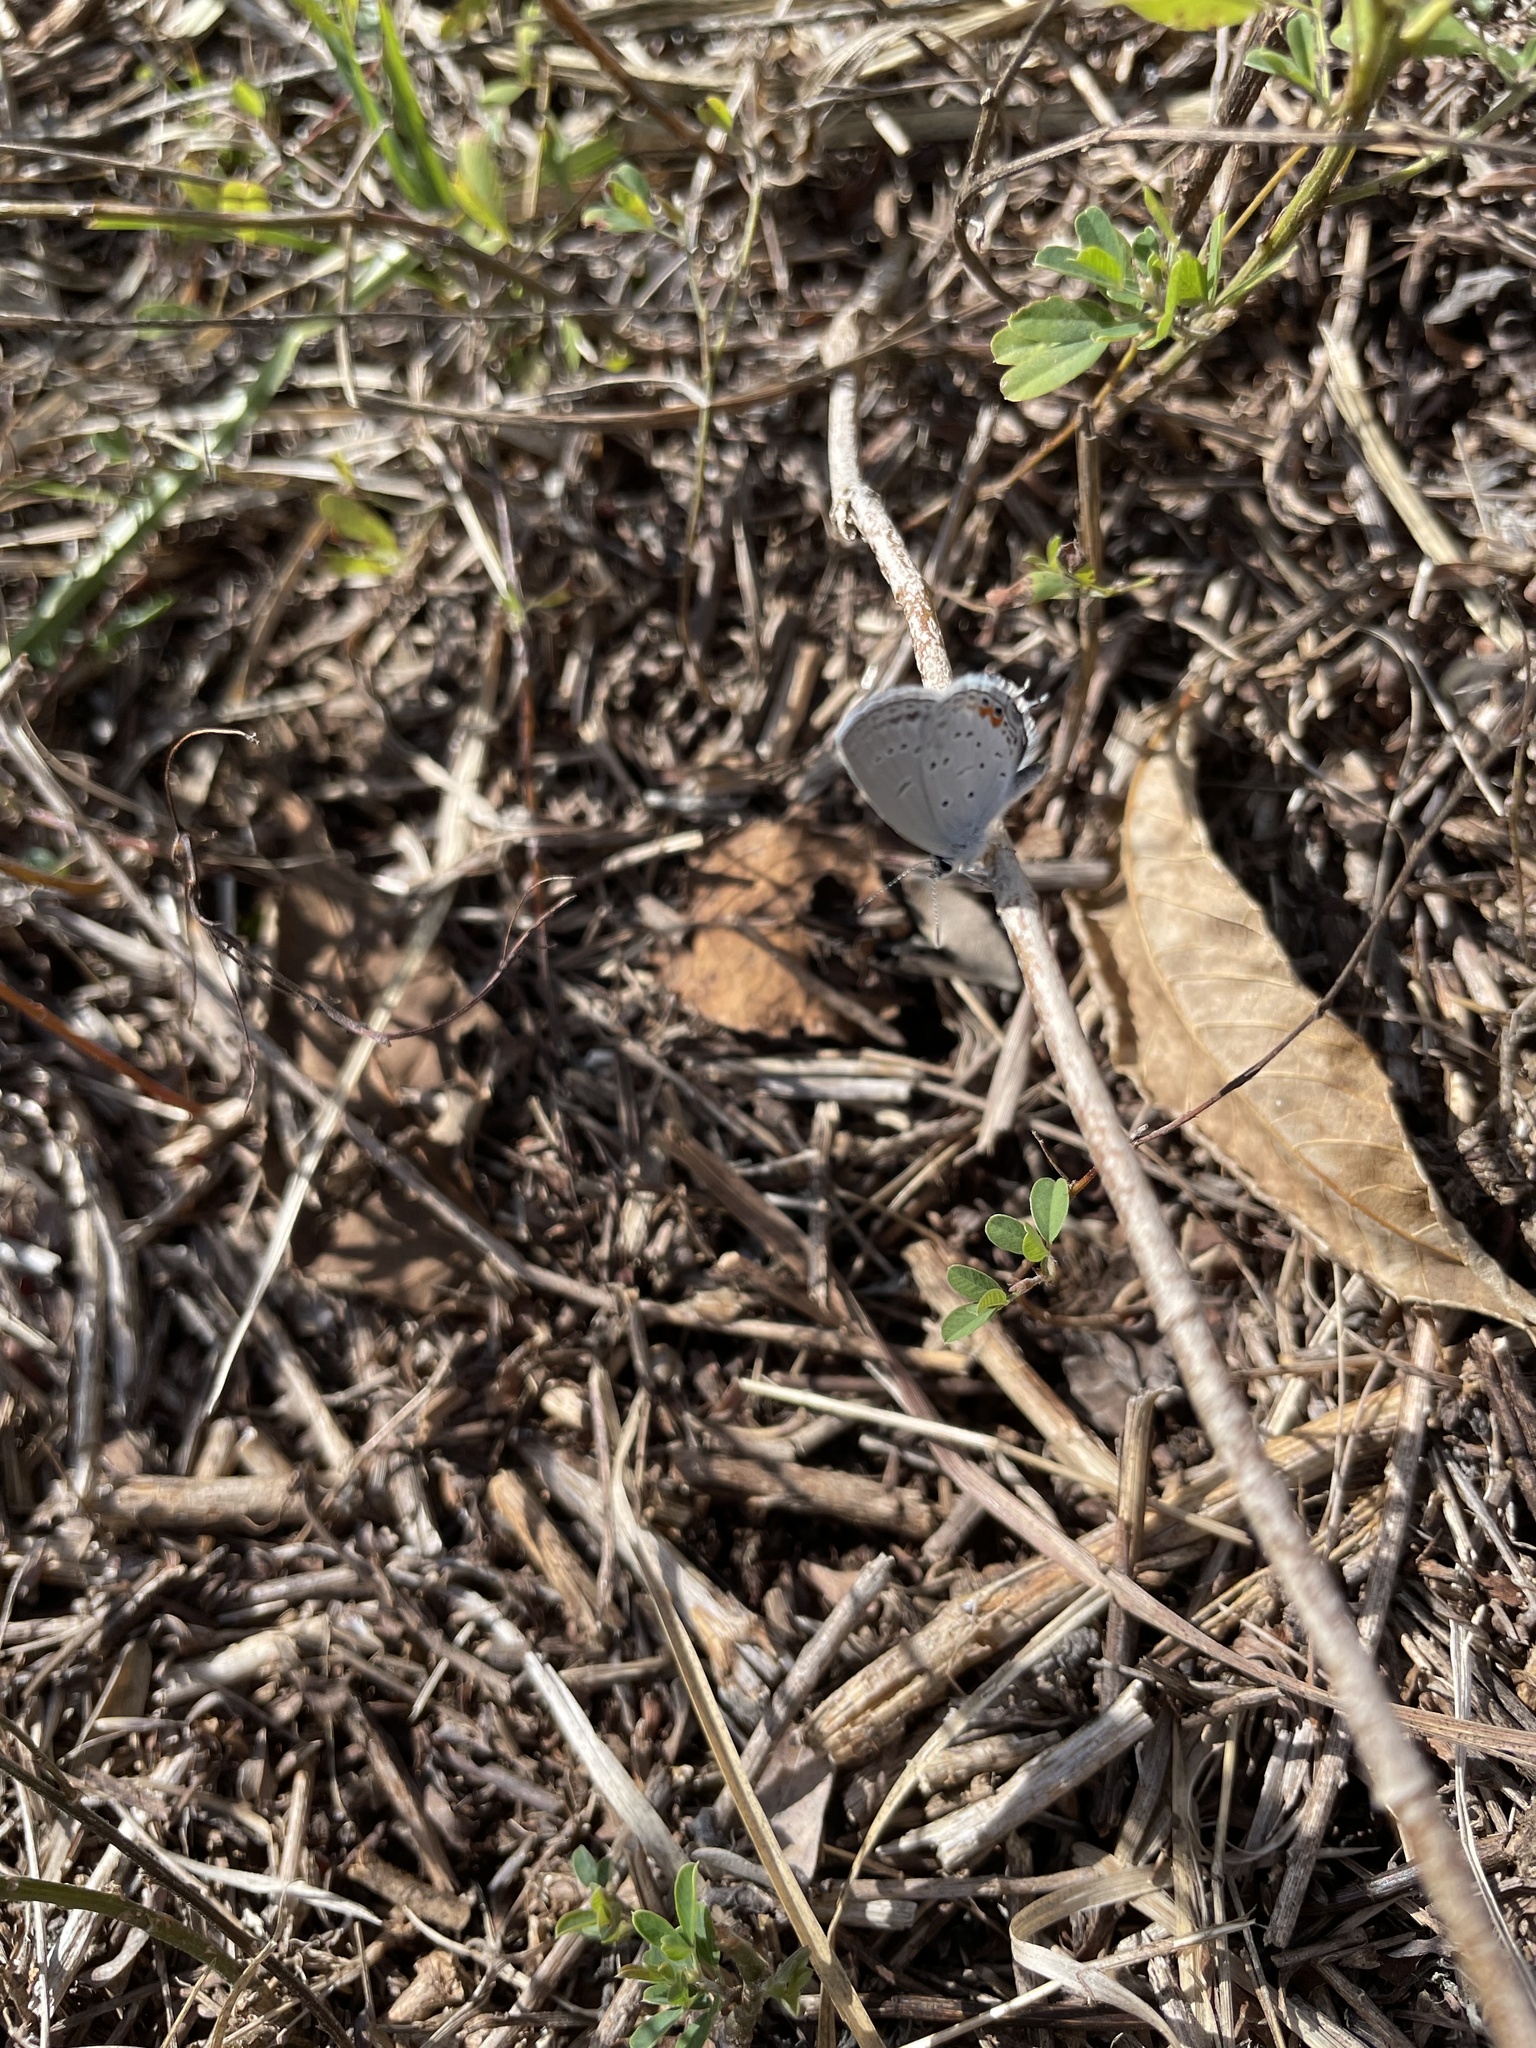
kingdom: Animalia
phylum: Arthropoda
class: Insecta
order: Lepidoptera
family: Lycaenidae
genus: Elkalyce
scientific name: Elkalyce comyntas
